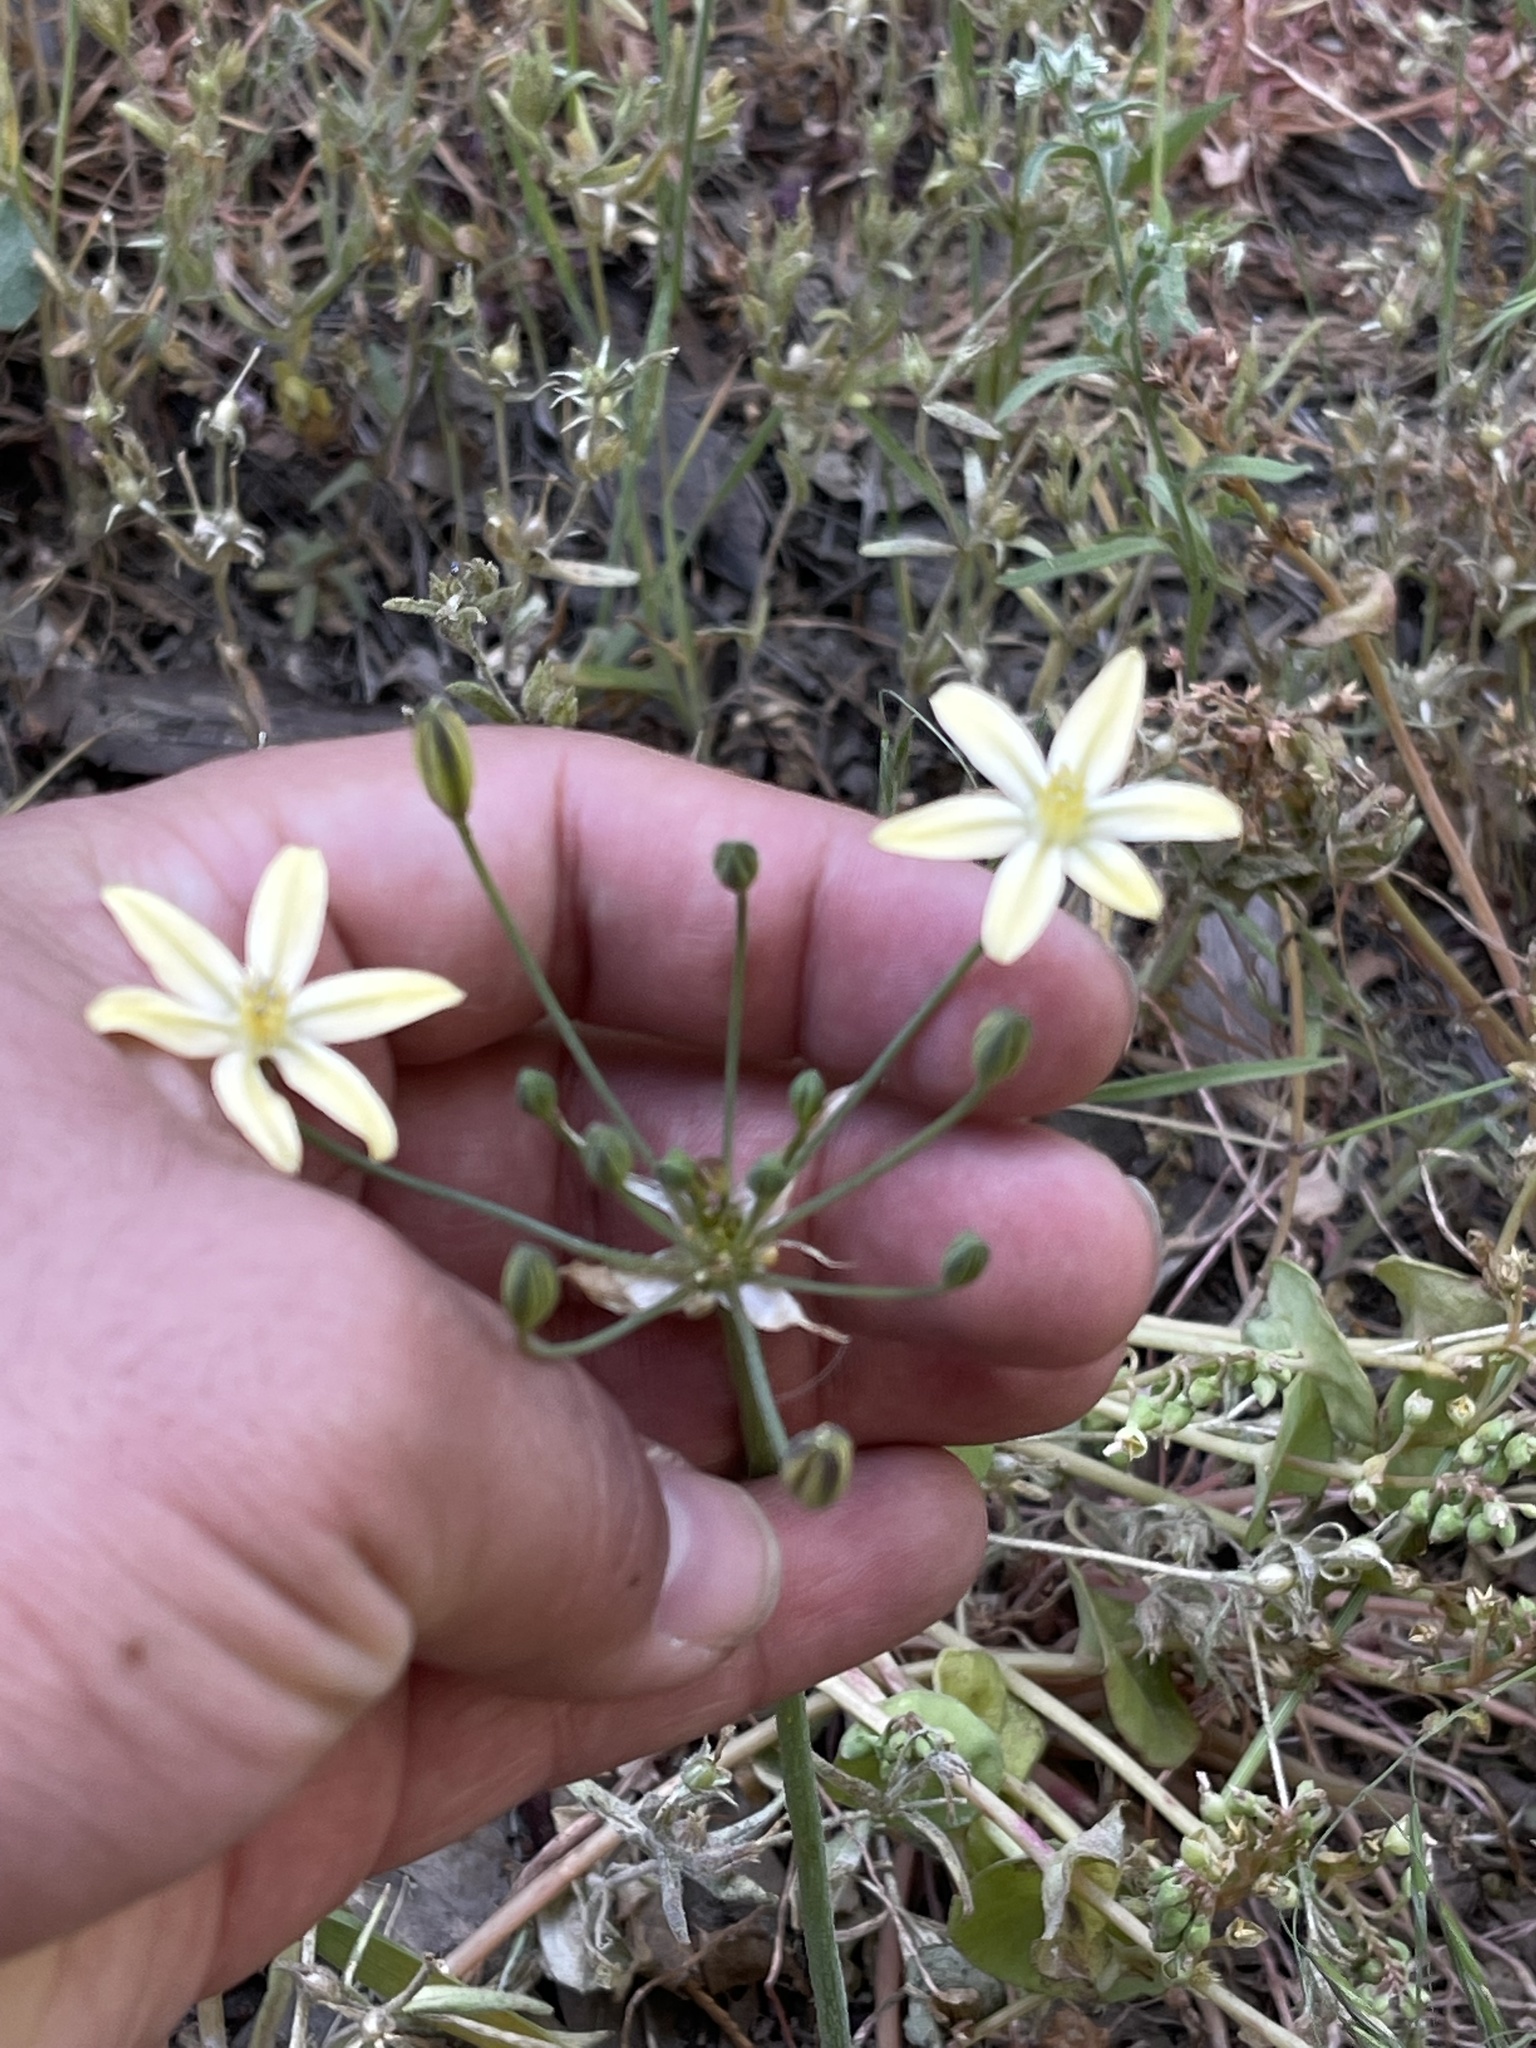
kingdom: Plantae
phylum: Tracheophyta
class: Liliopsida
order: Asparagales
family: Asparagaceae
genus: Triteleia
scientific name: Triteleia ixioides
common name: Yellow-brodiaea
